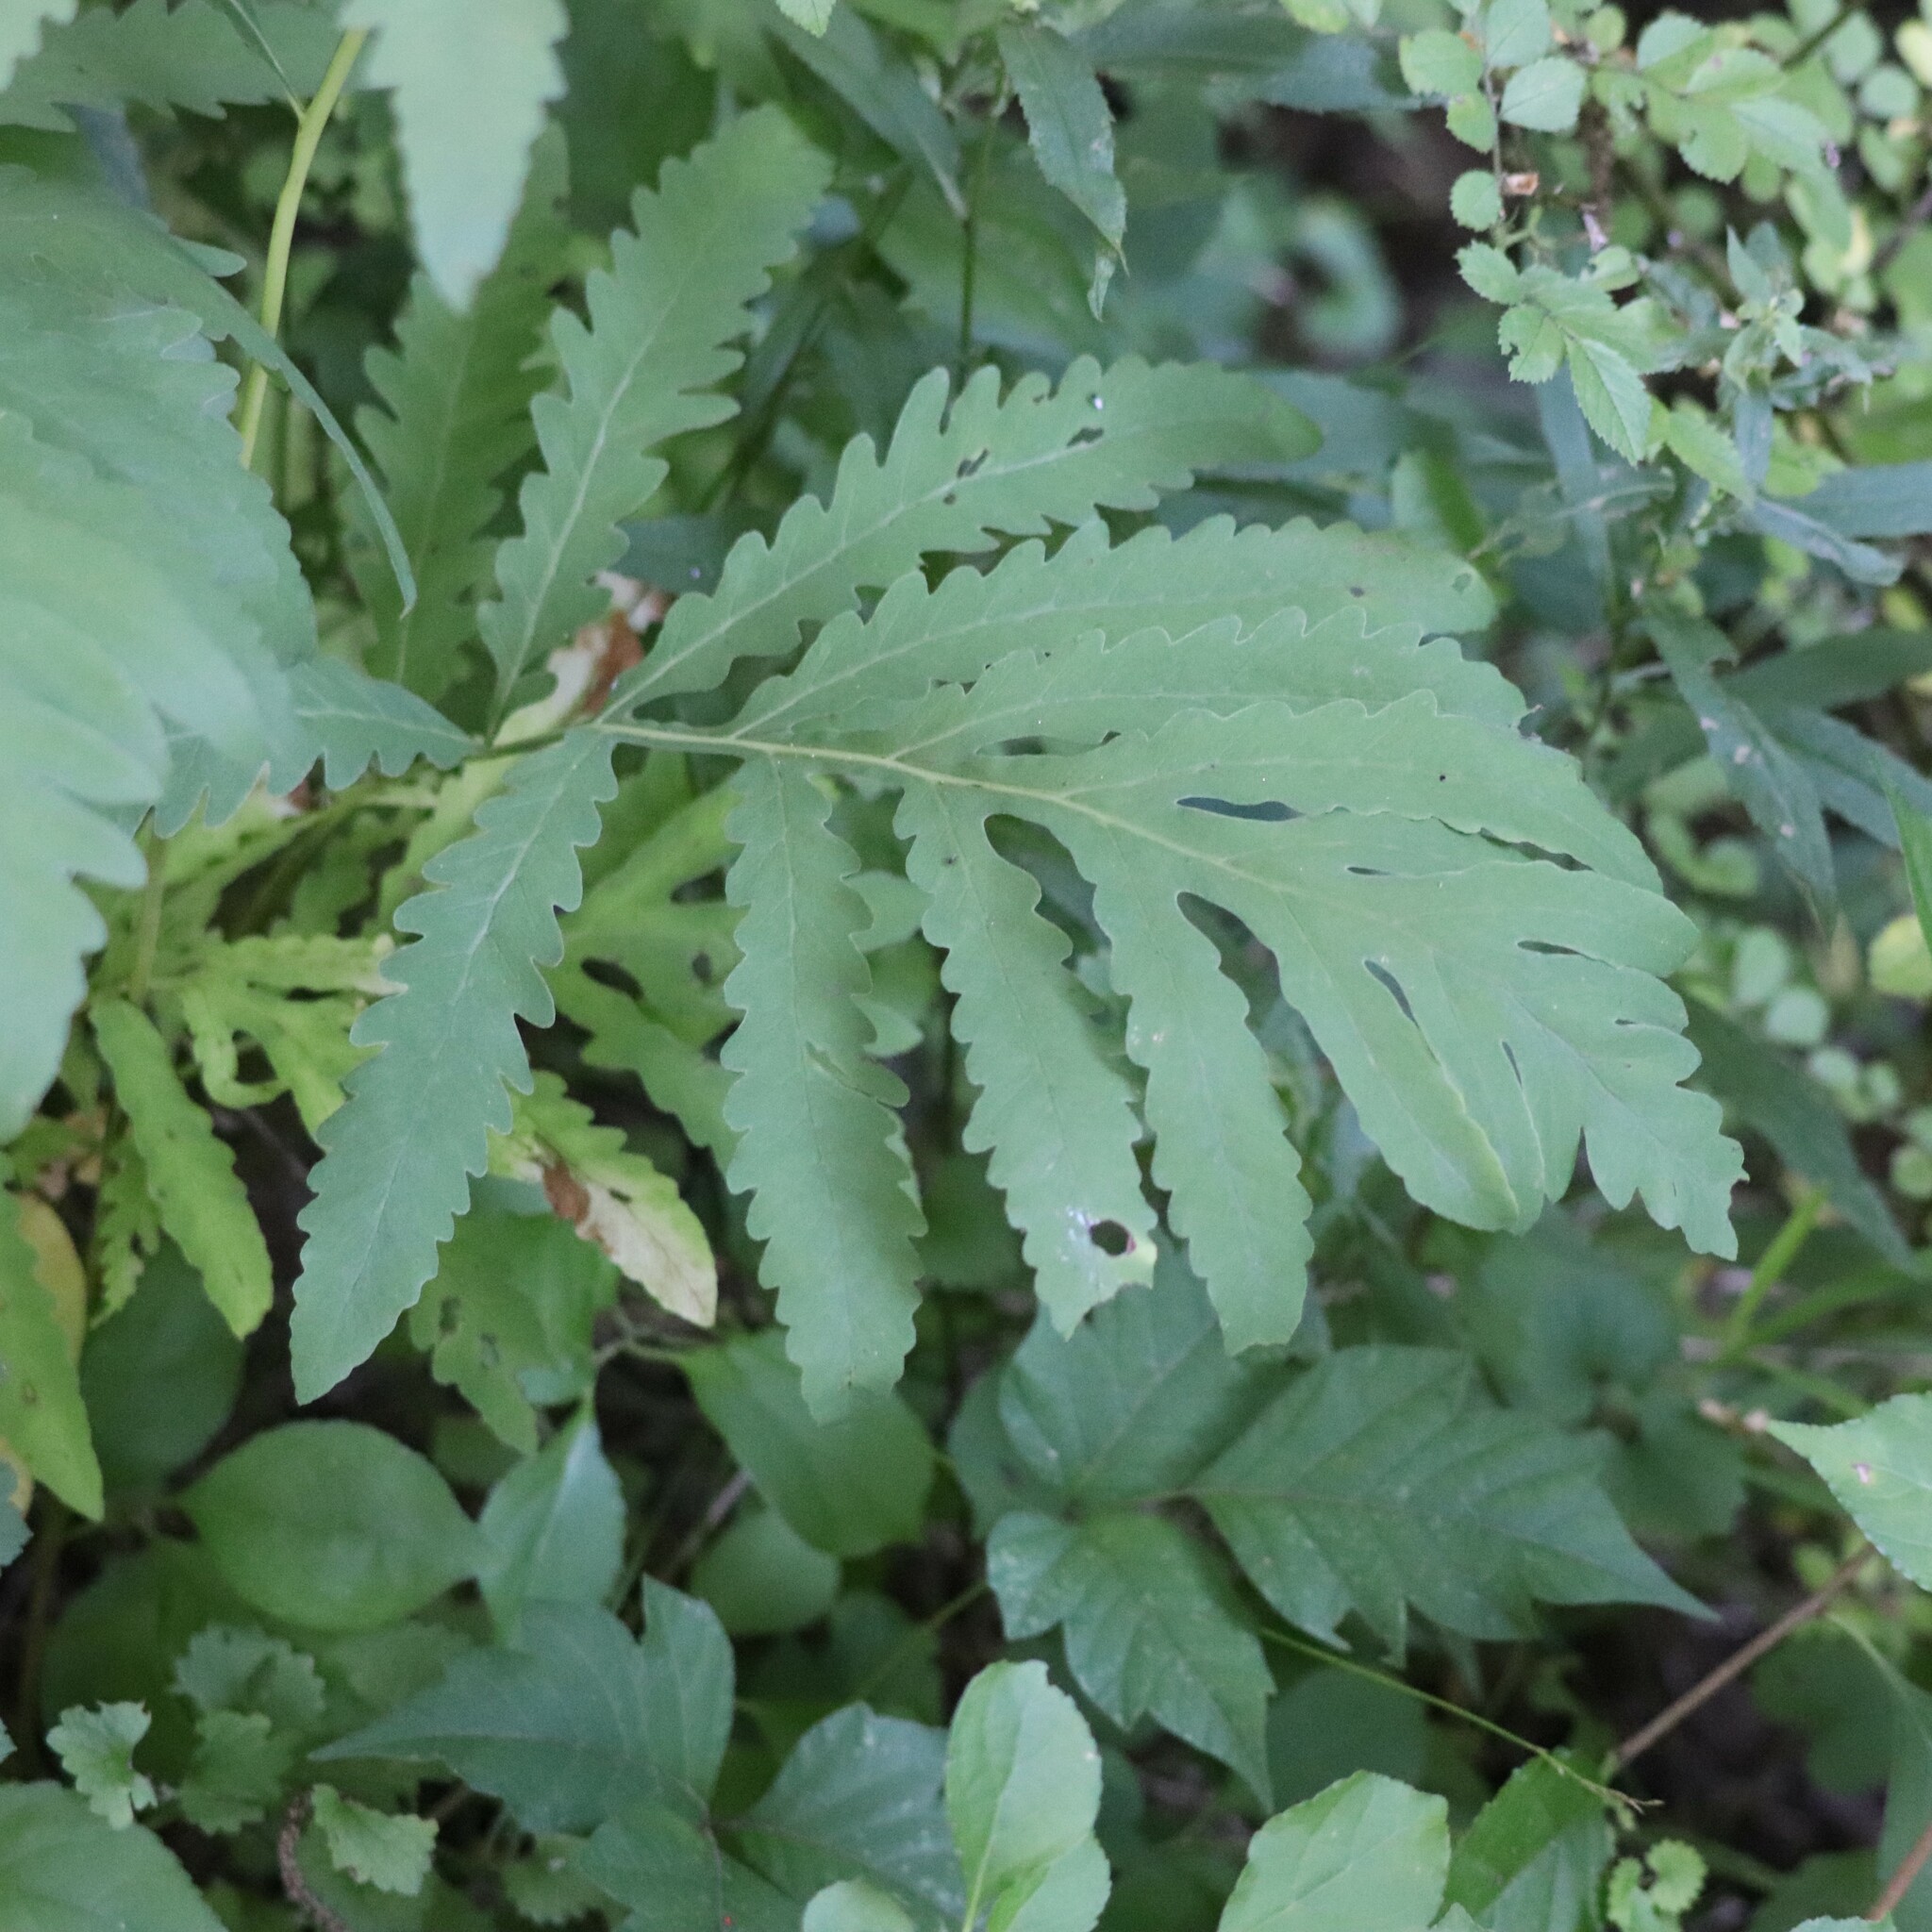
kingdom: Plantae
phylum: Tracheophyta
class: Polypodiopsida
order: Polypodiales
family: Onocleaceae
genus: Onoclea
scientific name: Onoclea sensibilis
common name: Sensitive fern
